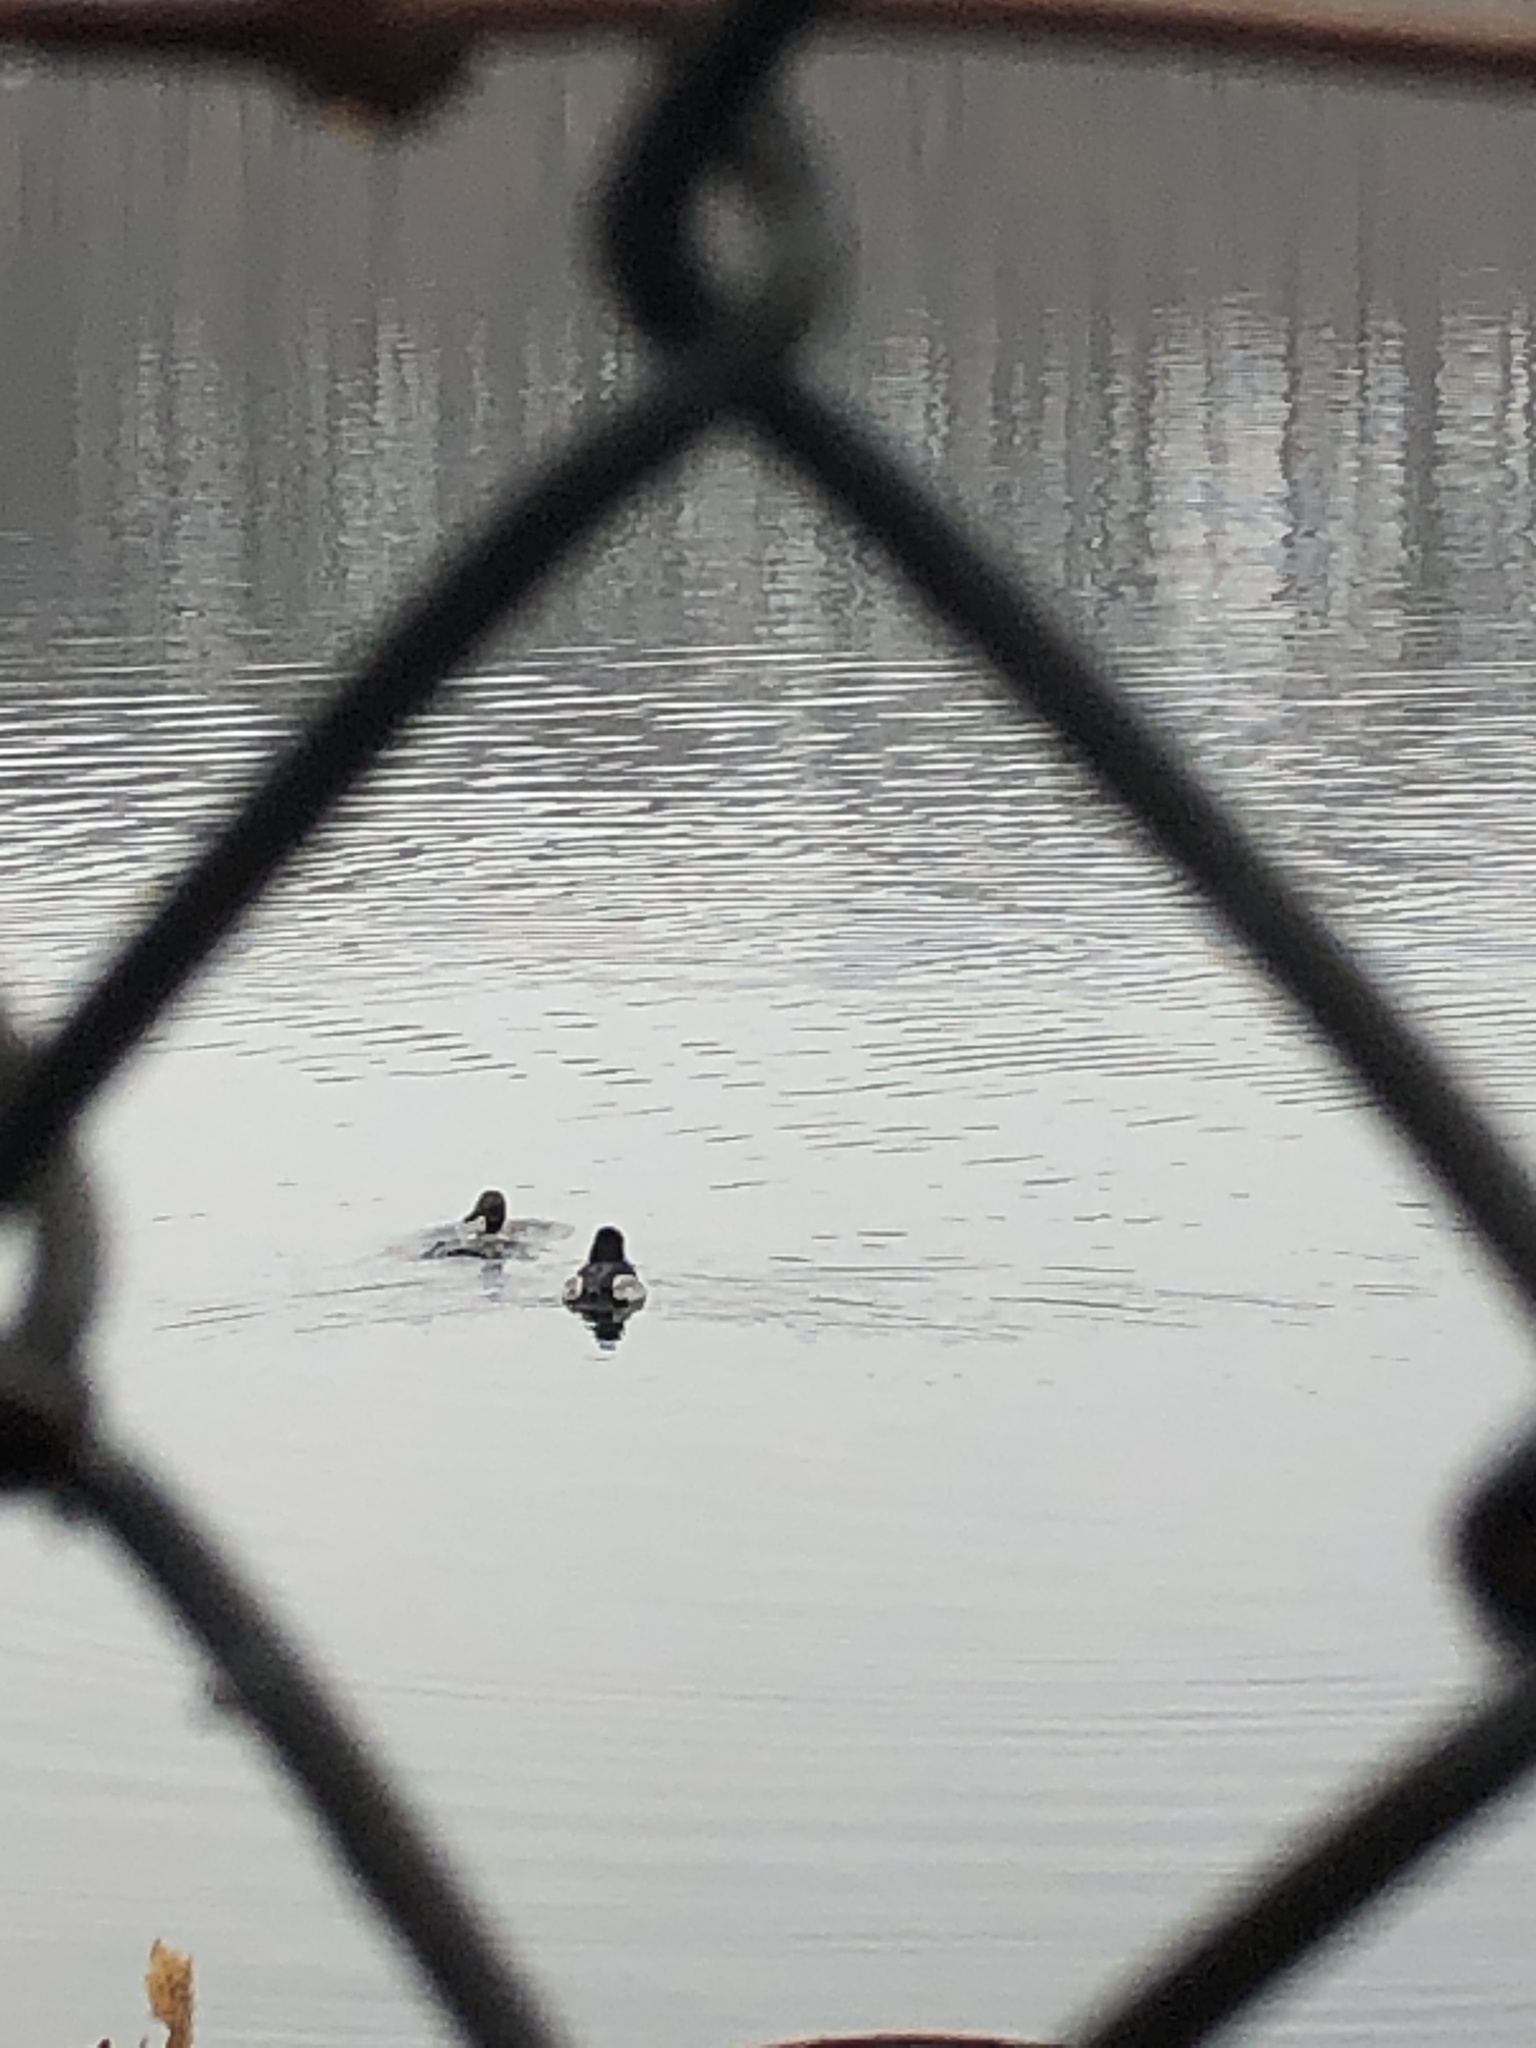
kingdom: Animalia
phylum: Chordata
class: Aves
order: Anseriformes
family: Anatidae
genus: Aythya
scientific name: Aythya collaris
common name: Ring-necked duck
